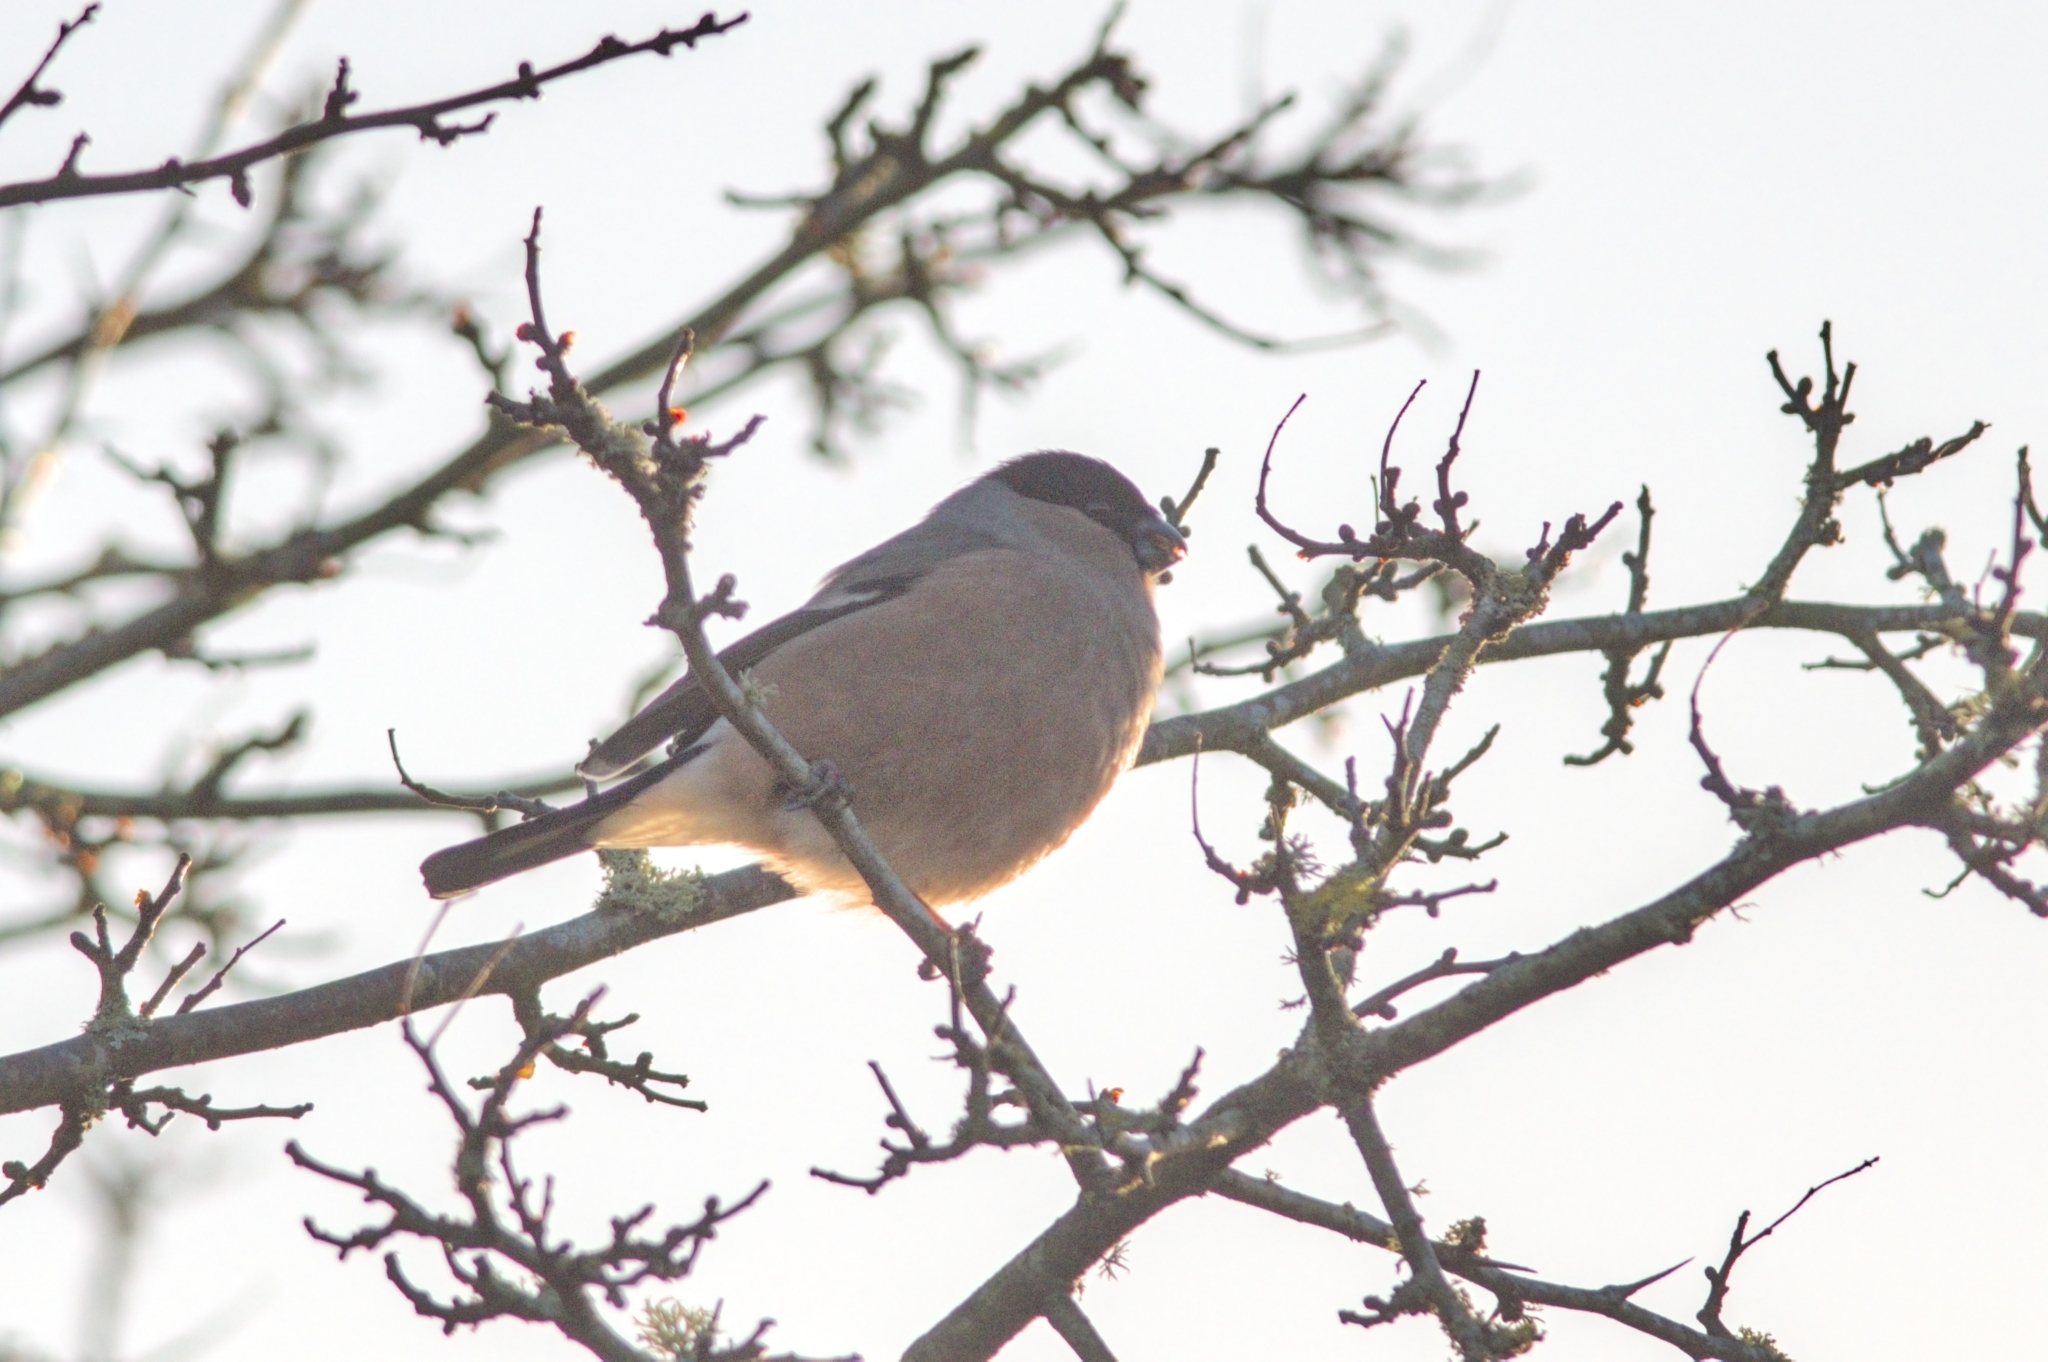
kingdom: Animalia
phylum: Chordata
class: Aves
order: Passeriformes
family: Fringillidae
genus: Pyrrhula
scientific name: Pyrrhula pyrrhula
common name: Eurasian bullfinch
